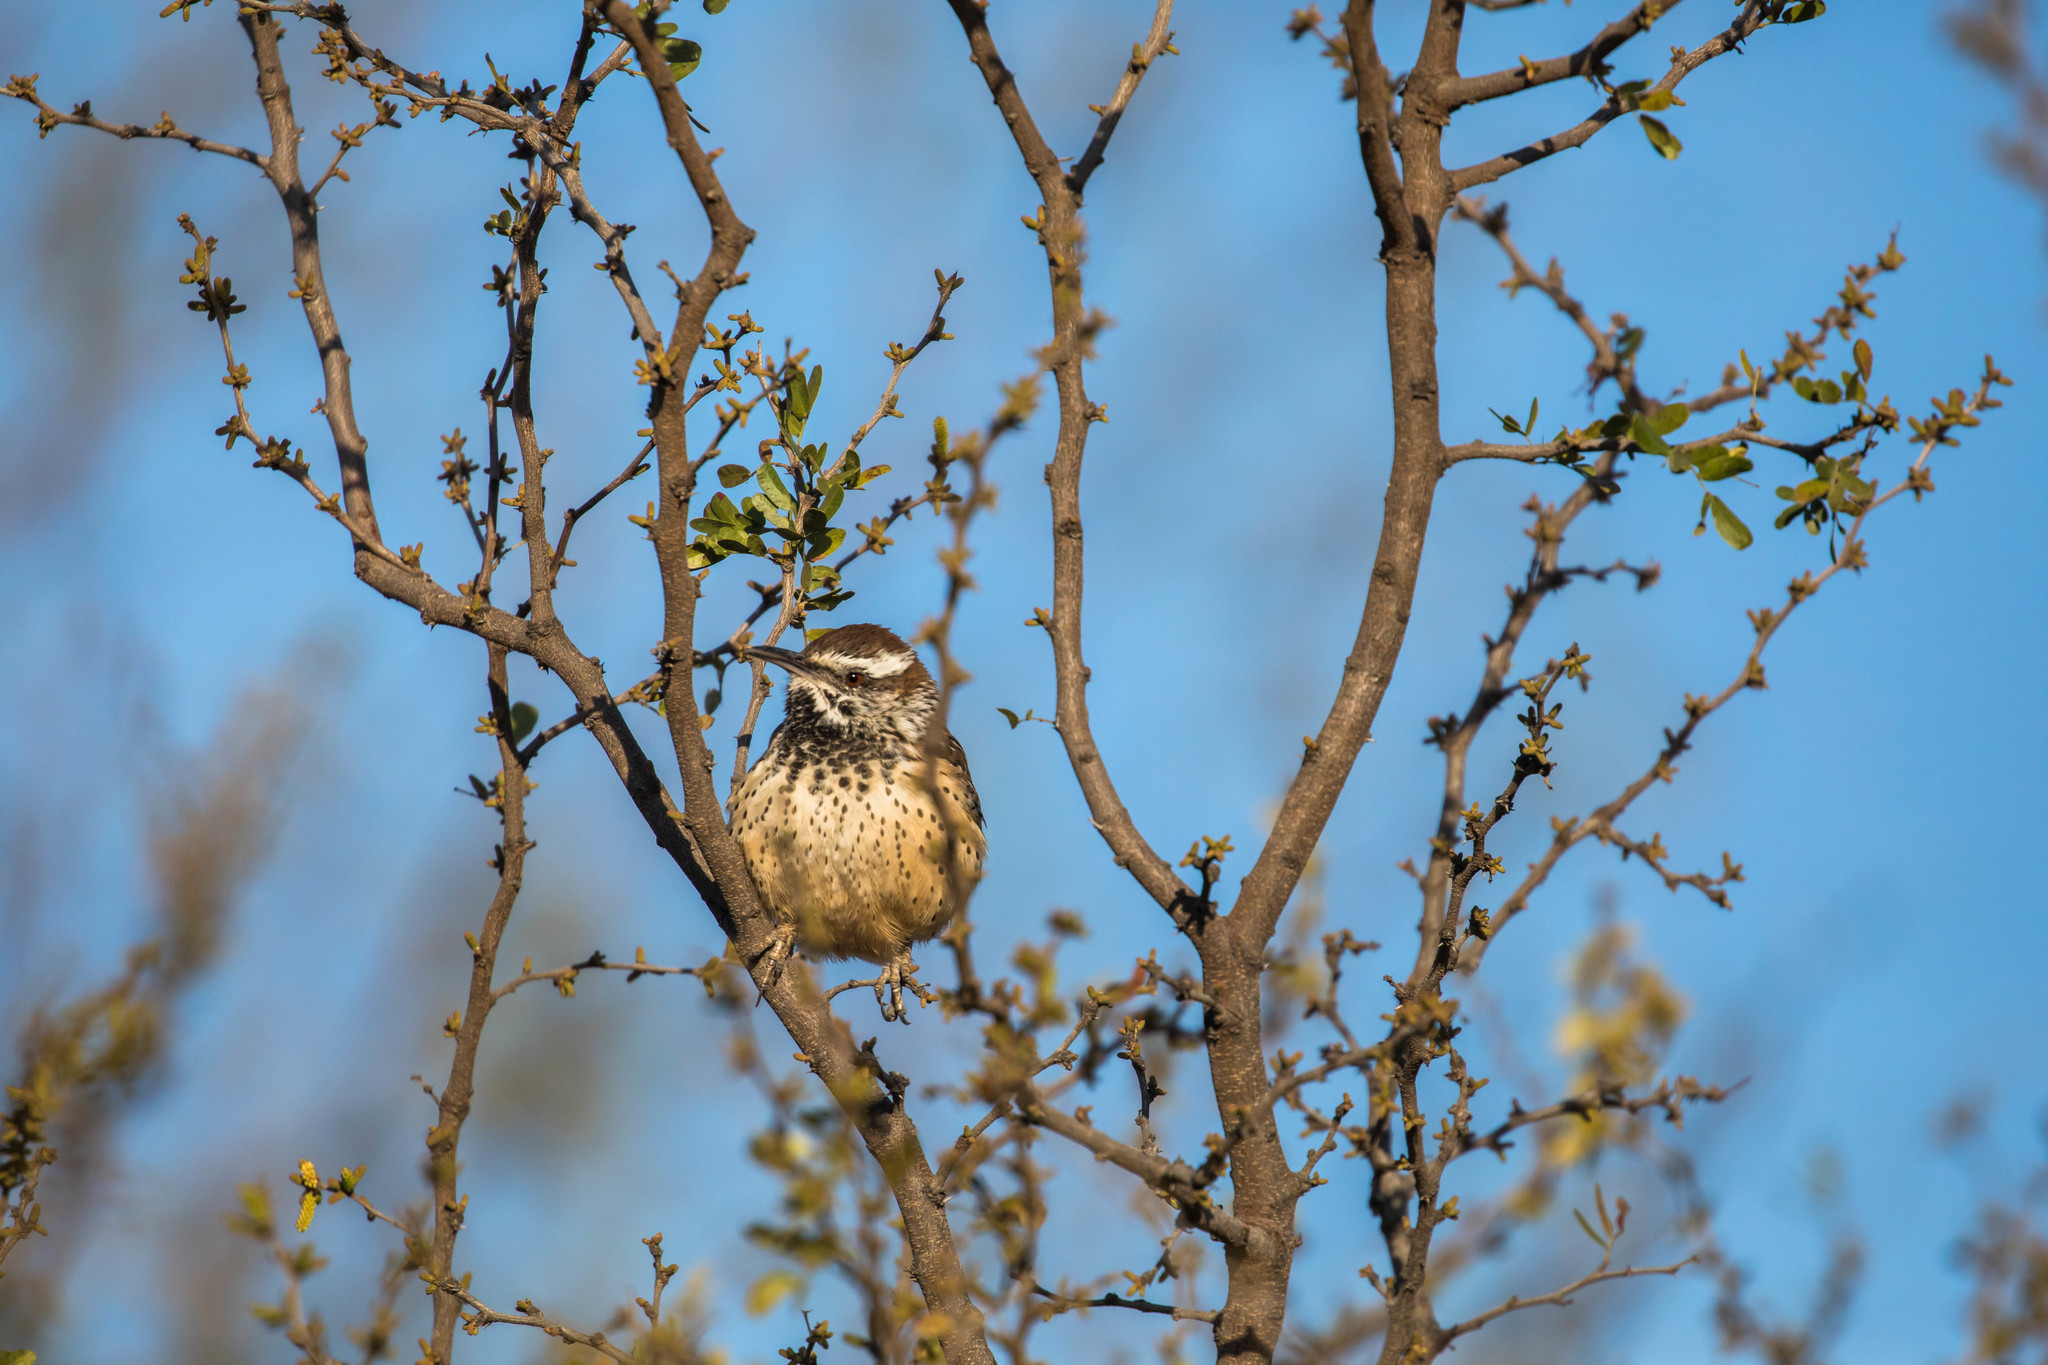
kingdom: Animalia
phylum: Chordata
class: Aves
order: Passeriformes
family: Troglodytidae
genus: Campylorhynchus
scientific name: Campylorhynchus brunneicapillus
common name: Cactus wren
